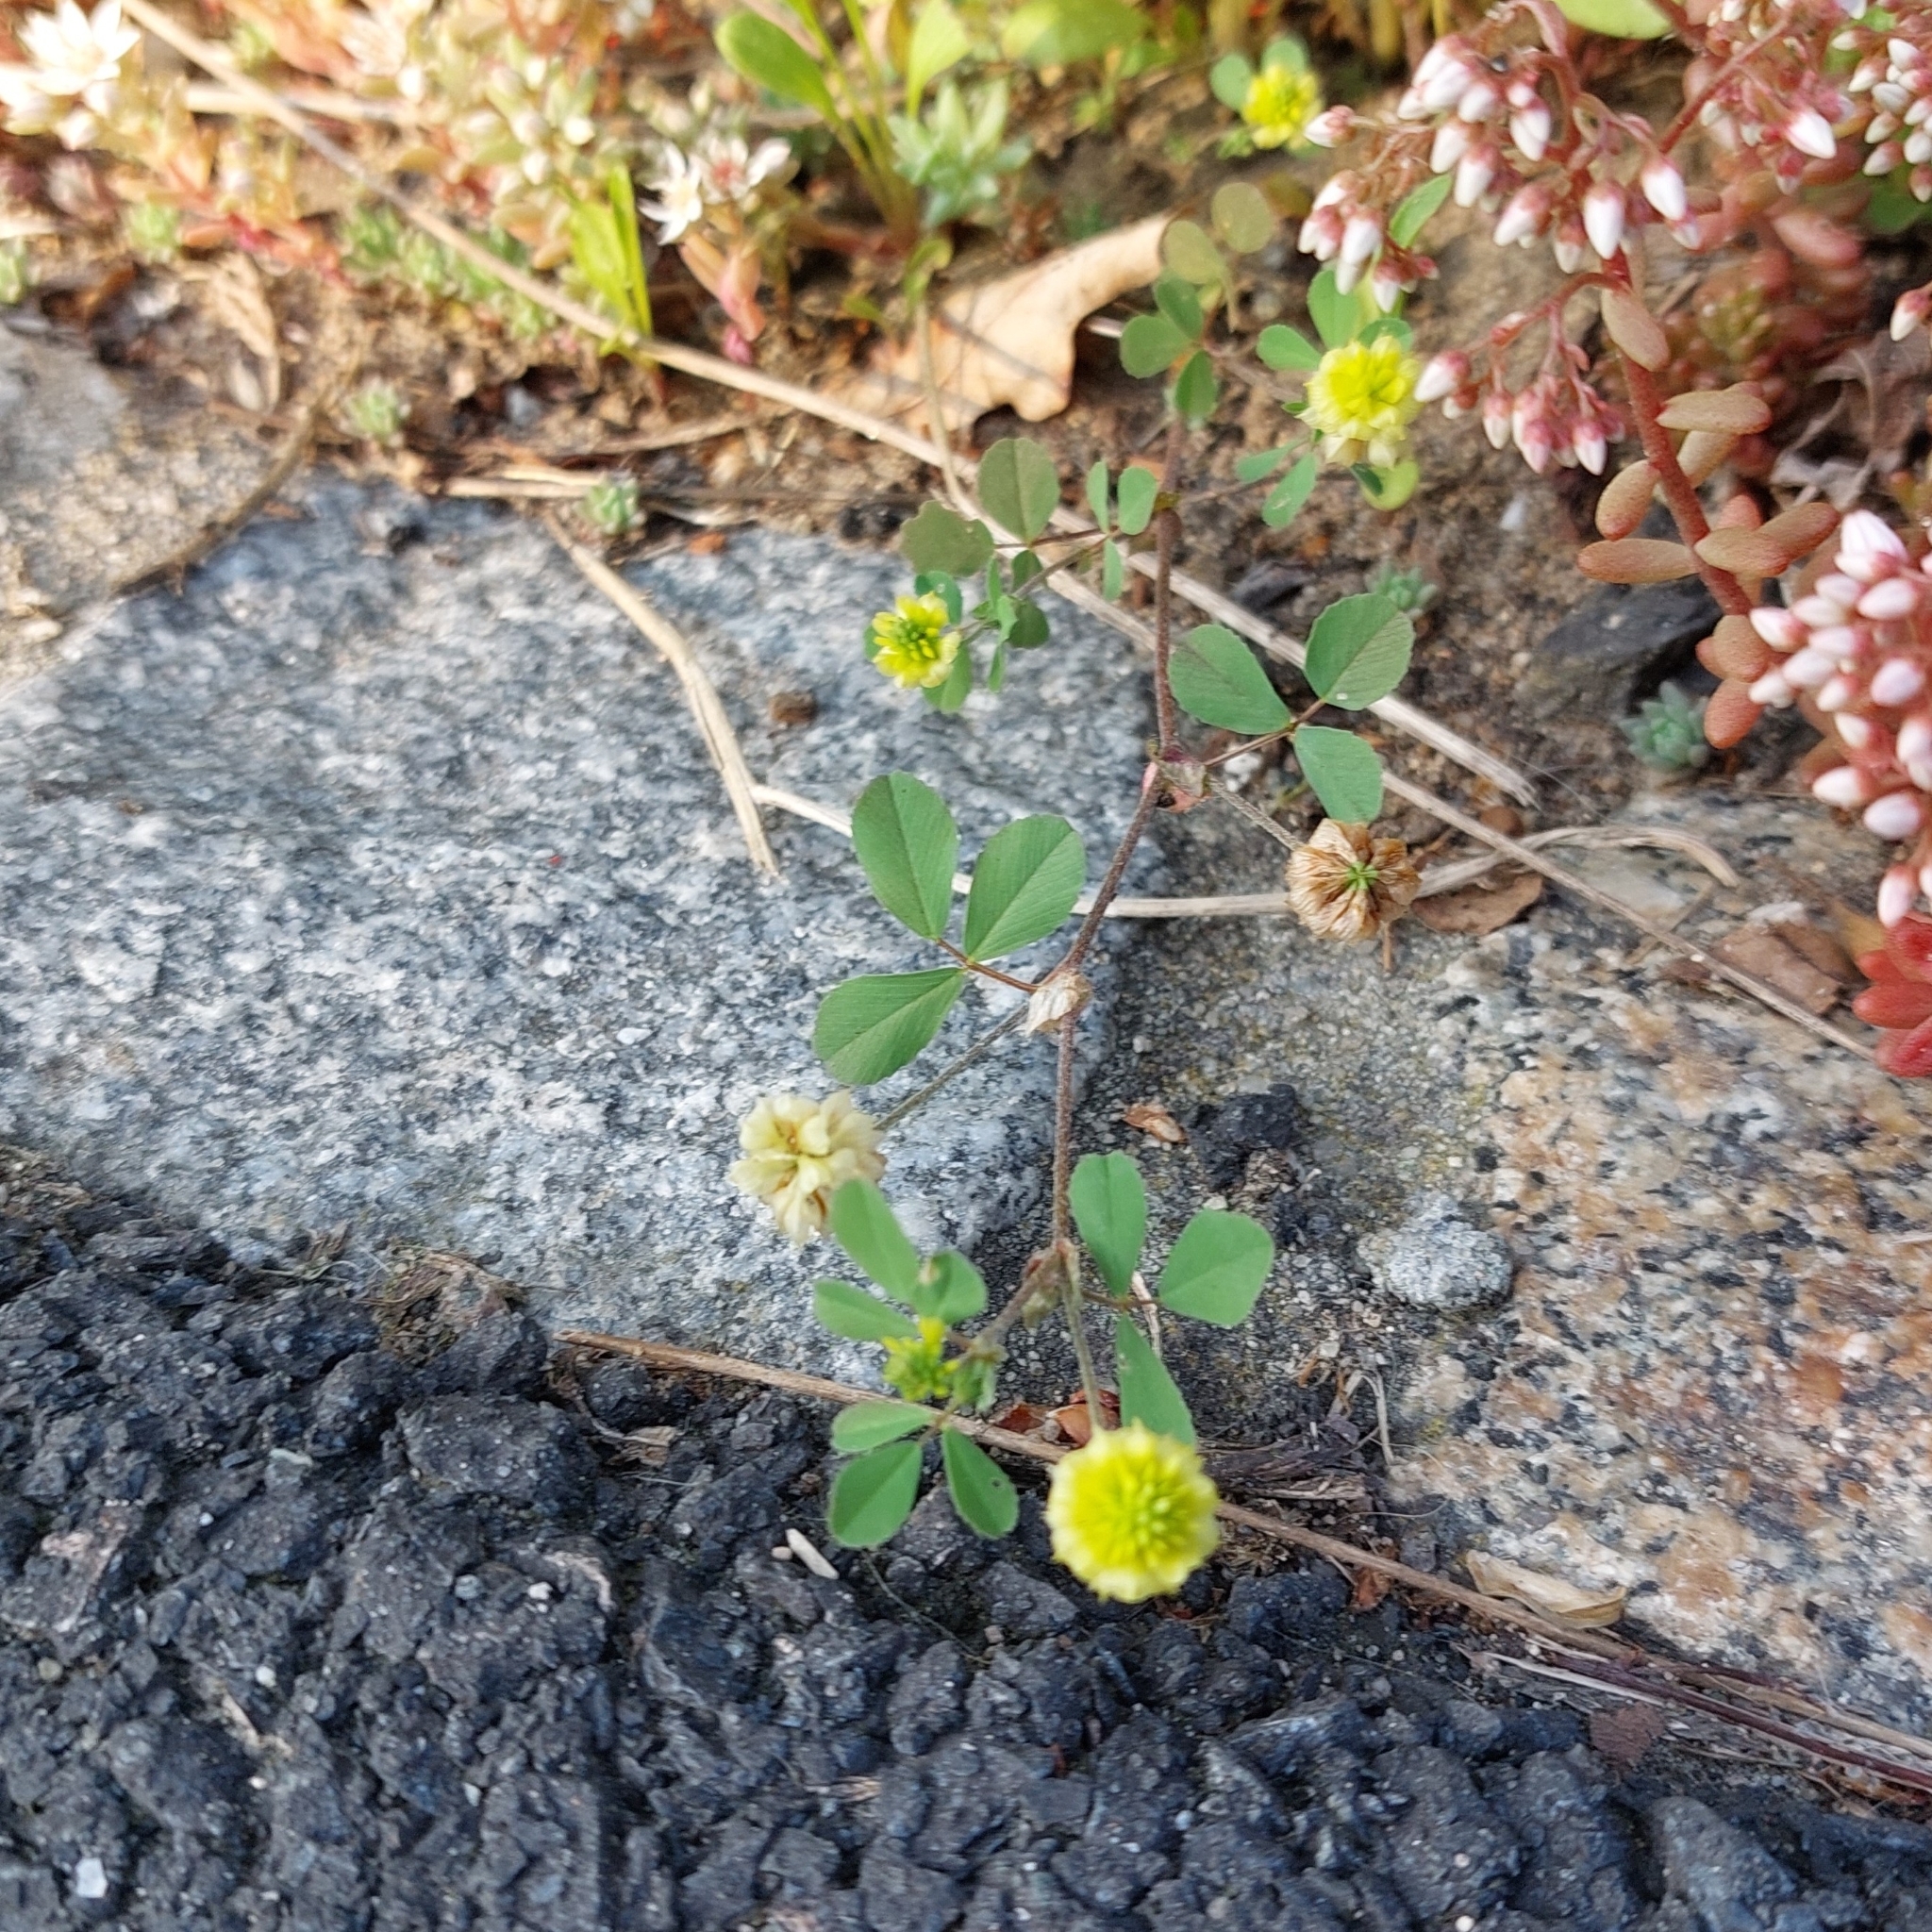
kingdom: Plantae
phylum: Tracheophyta
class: Magnoliopsida
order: Fabales
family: Fabaceae
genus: Trifolium
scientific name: Trifolium campestre
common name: Field clover
